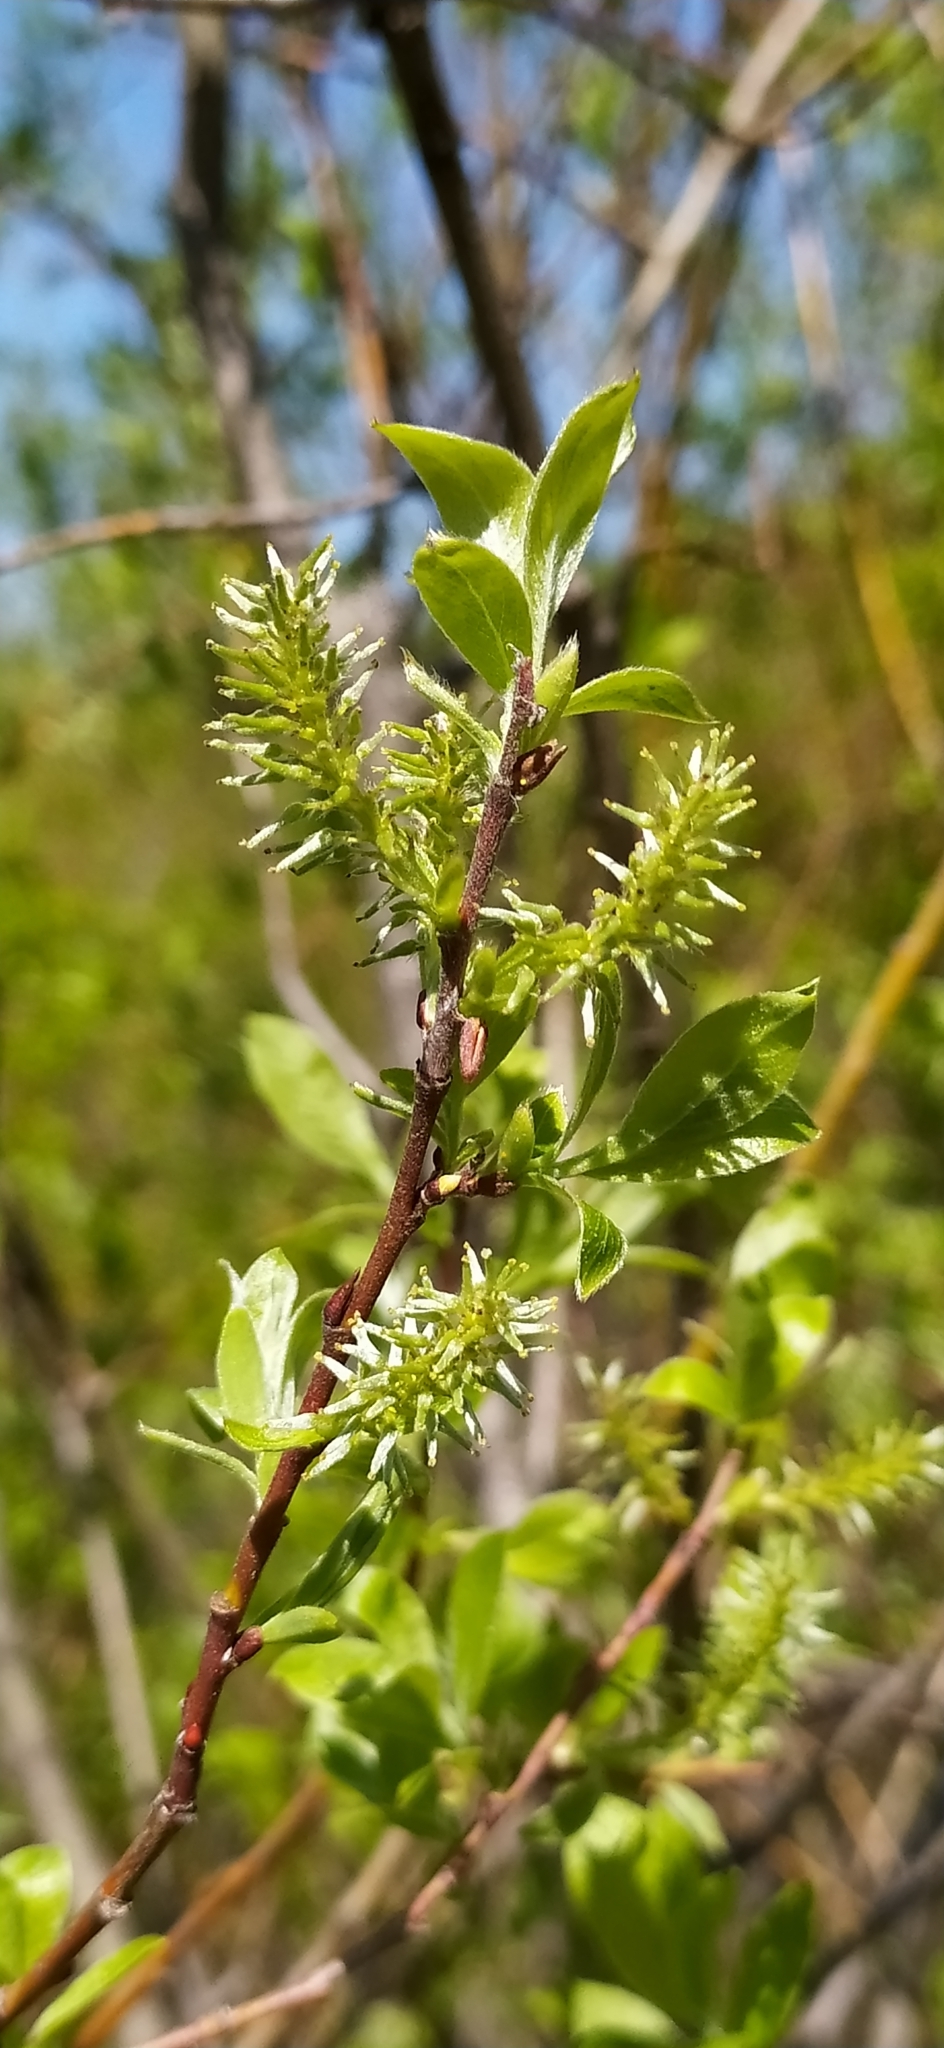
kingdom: Plantae
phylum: Tracheophyta
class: Magnoliopsida
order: Malpighiales
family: Salicaceae
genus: Salix
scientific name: Salix uralicola
